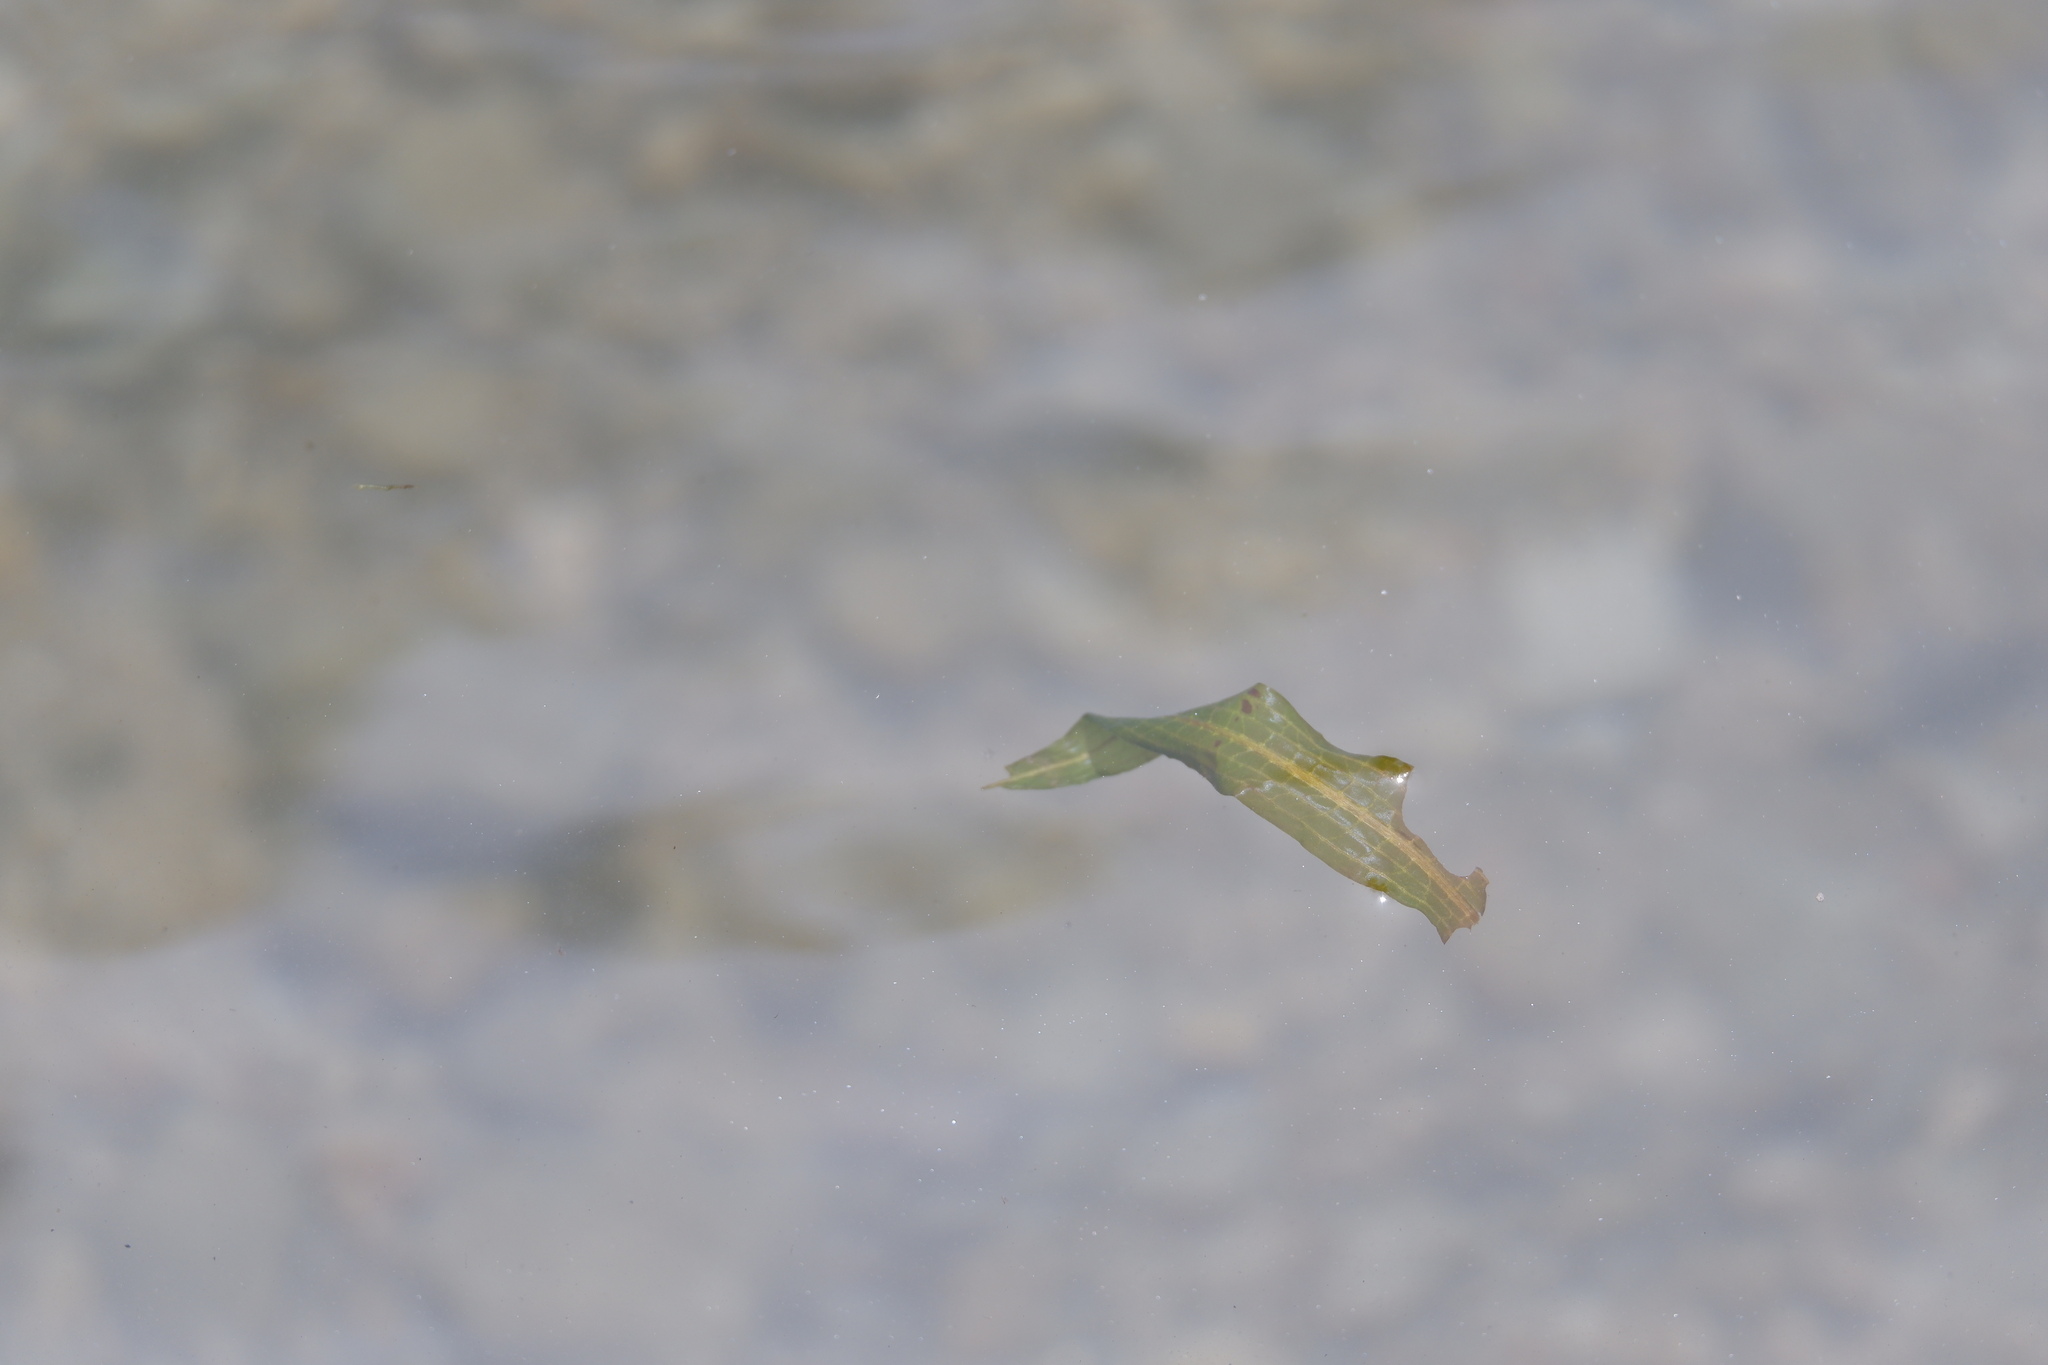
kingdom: Plantae
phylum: Tracheophyta
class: Liliopsida
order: Alismatales
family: Potamogetonaceae
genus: Potamogeton
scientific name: Potamogeton illinoensis
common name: Illinois pondweed
